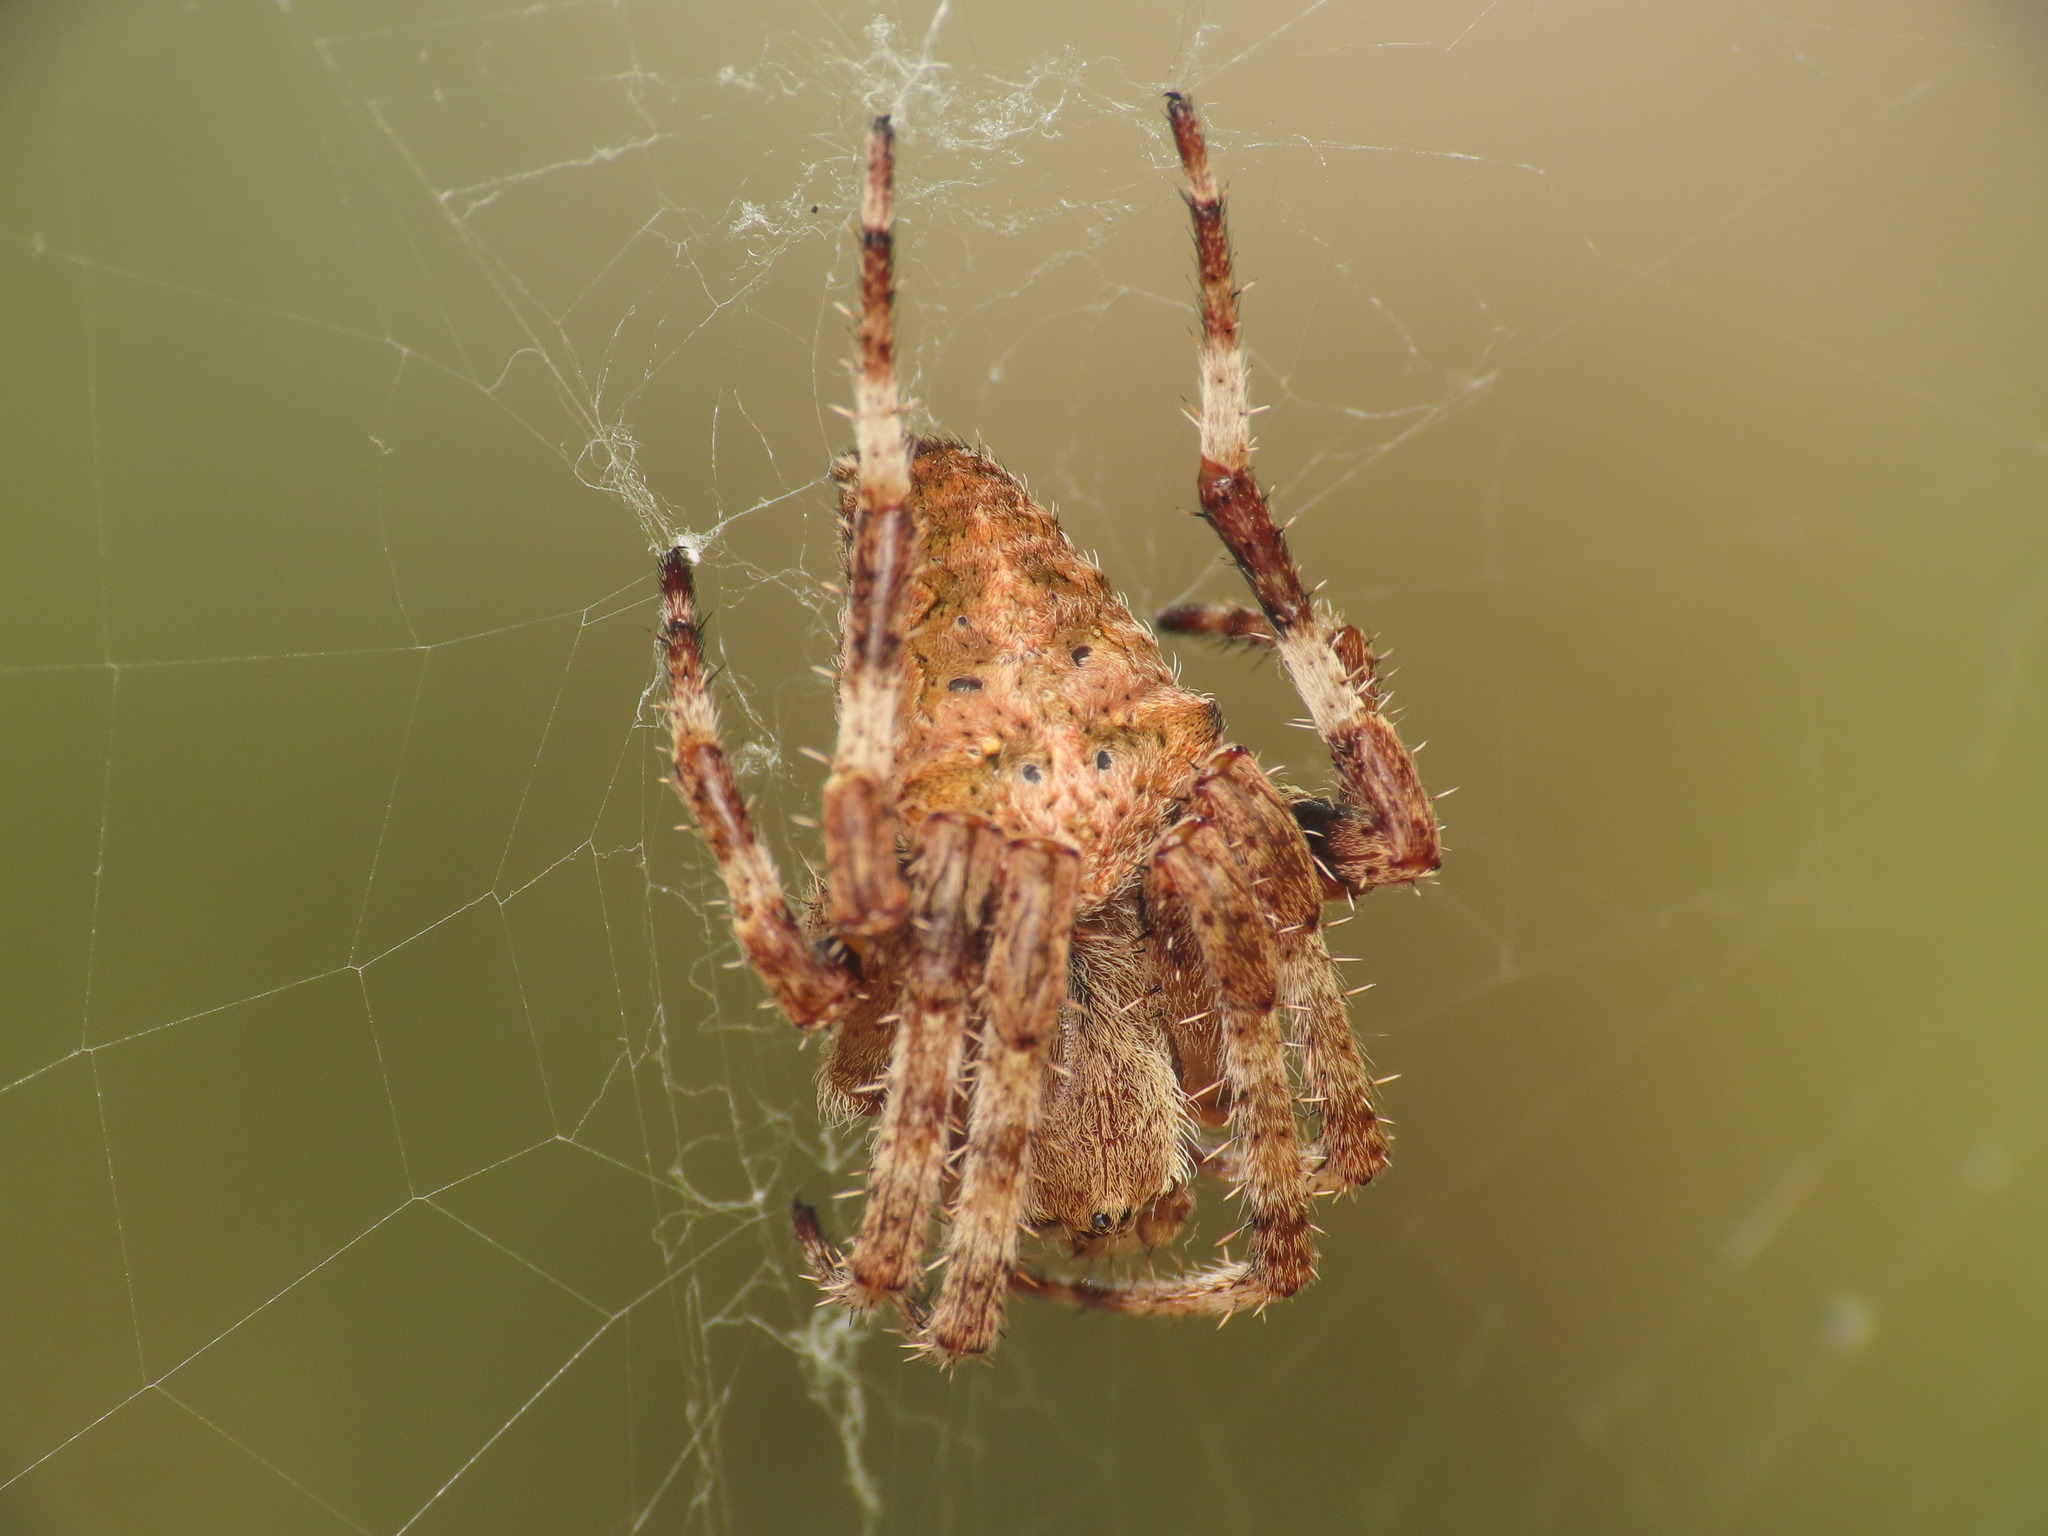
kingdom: Animalia
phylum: Arthropoda
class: Arachnida
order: Araneae
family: Araneidae
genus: Araneus
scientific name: Araneus angulatus
